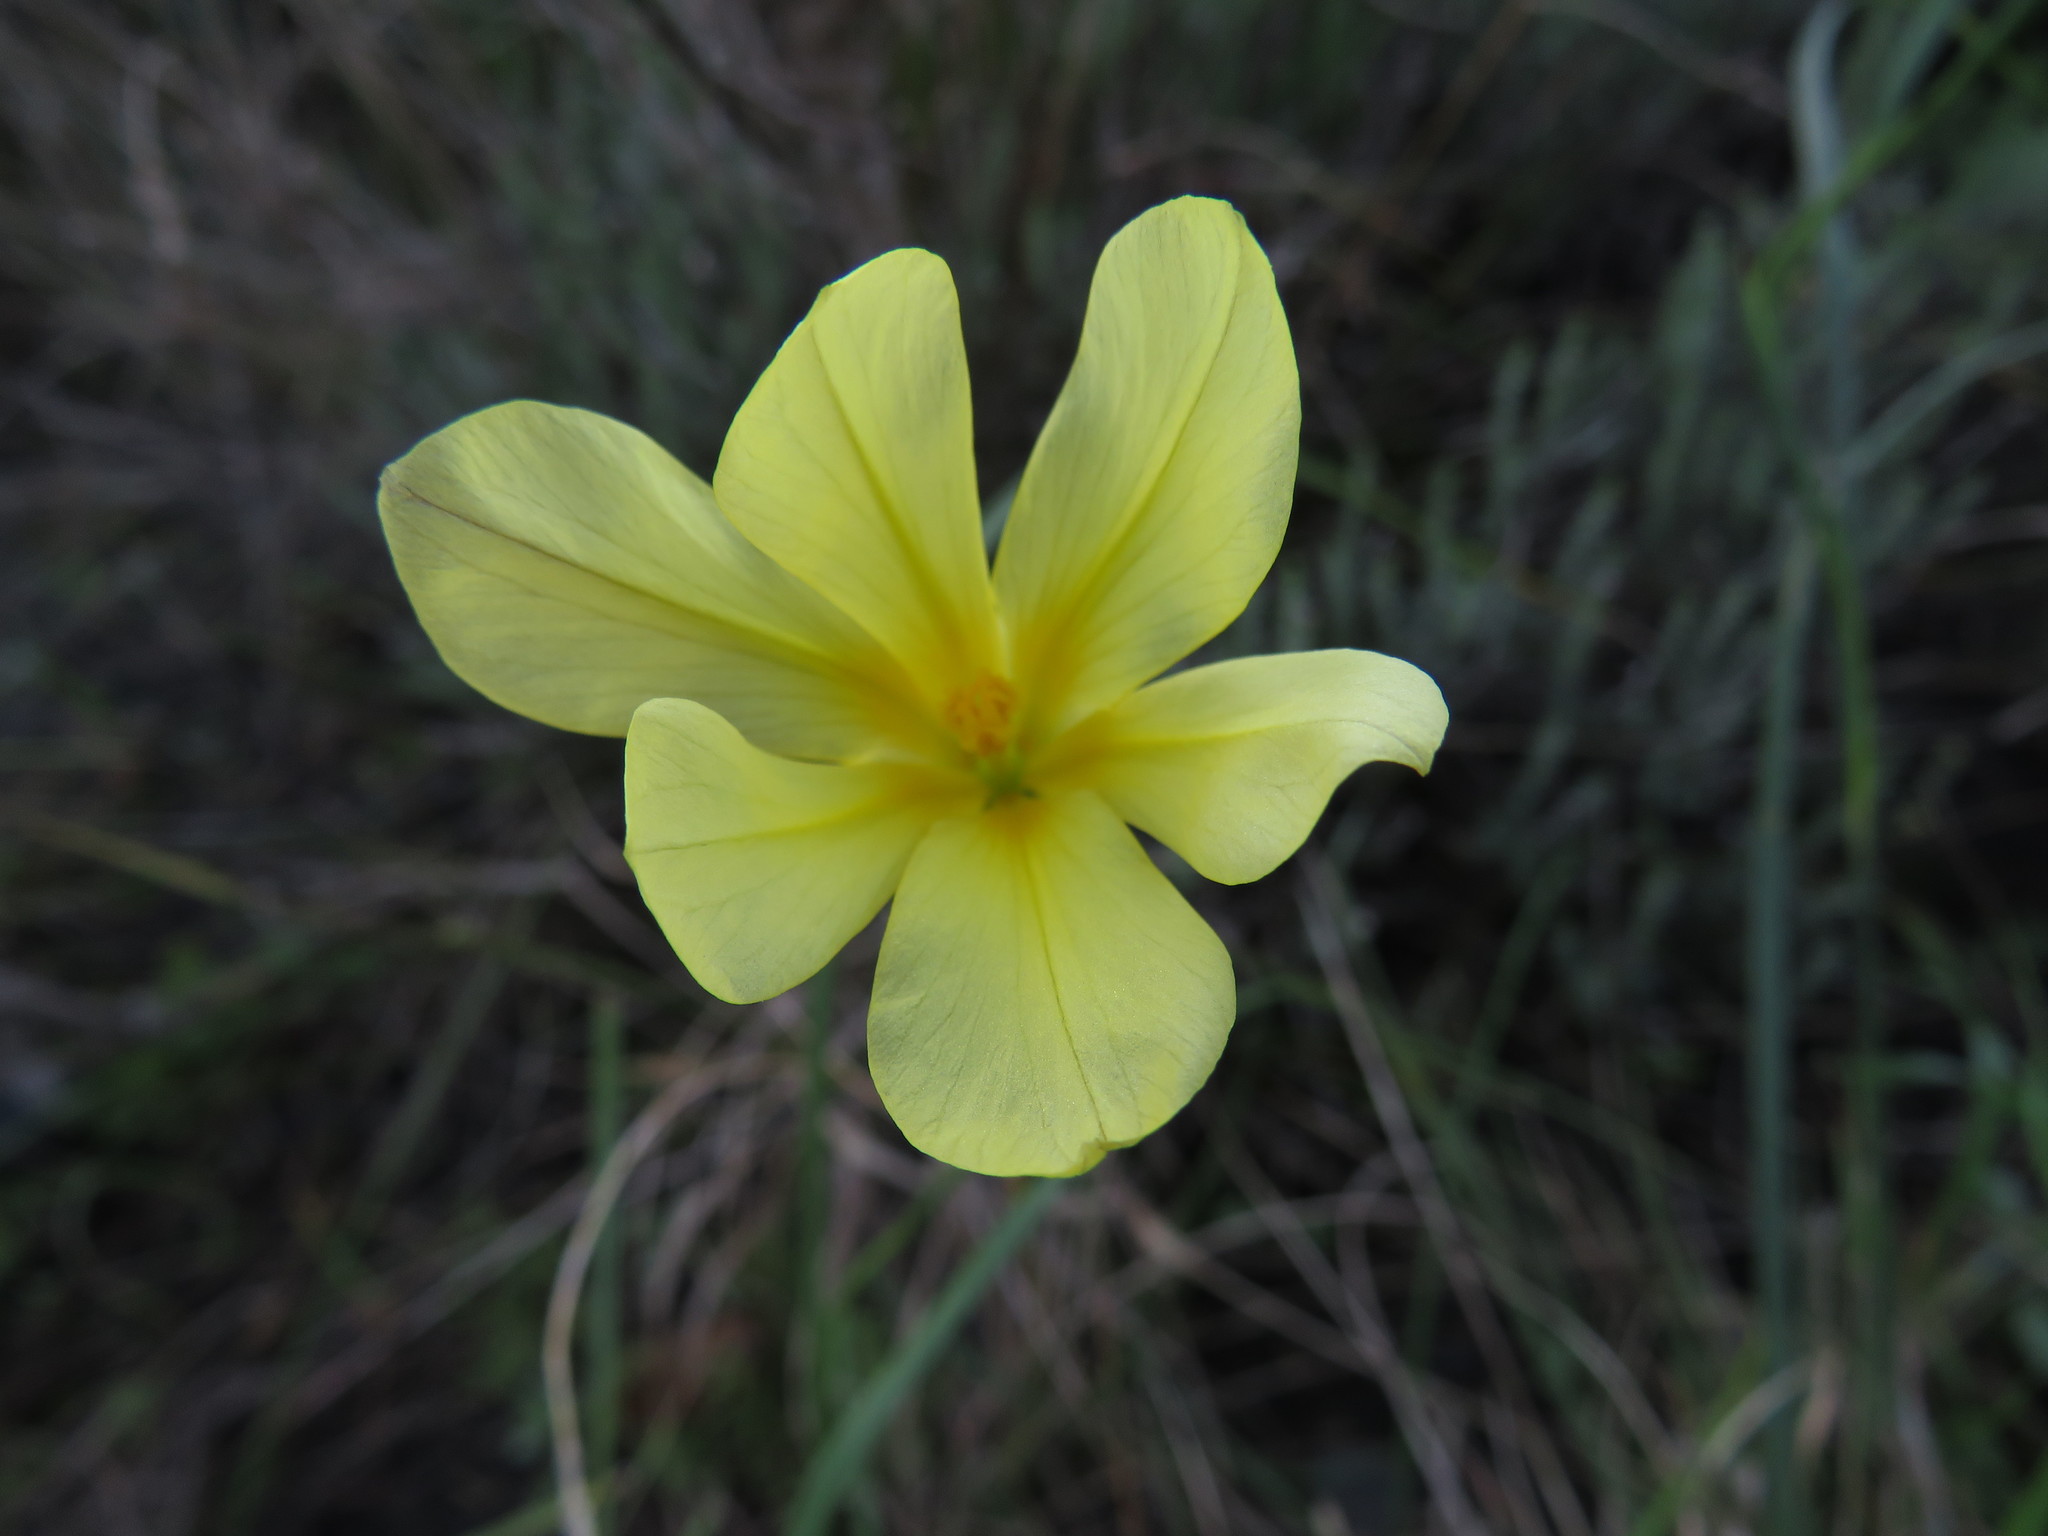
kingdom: Plantae
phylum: Tracheophyta
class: Liliopsida
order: Asparagales
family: Iridaceae
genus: Moraea
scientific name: Moraea collina
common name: Cape-tulip
